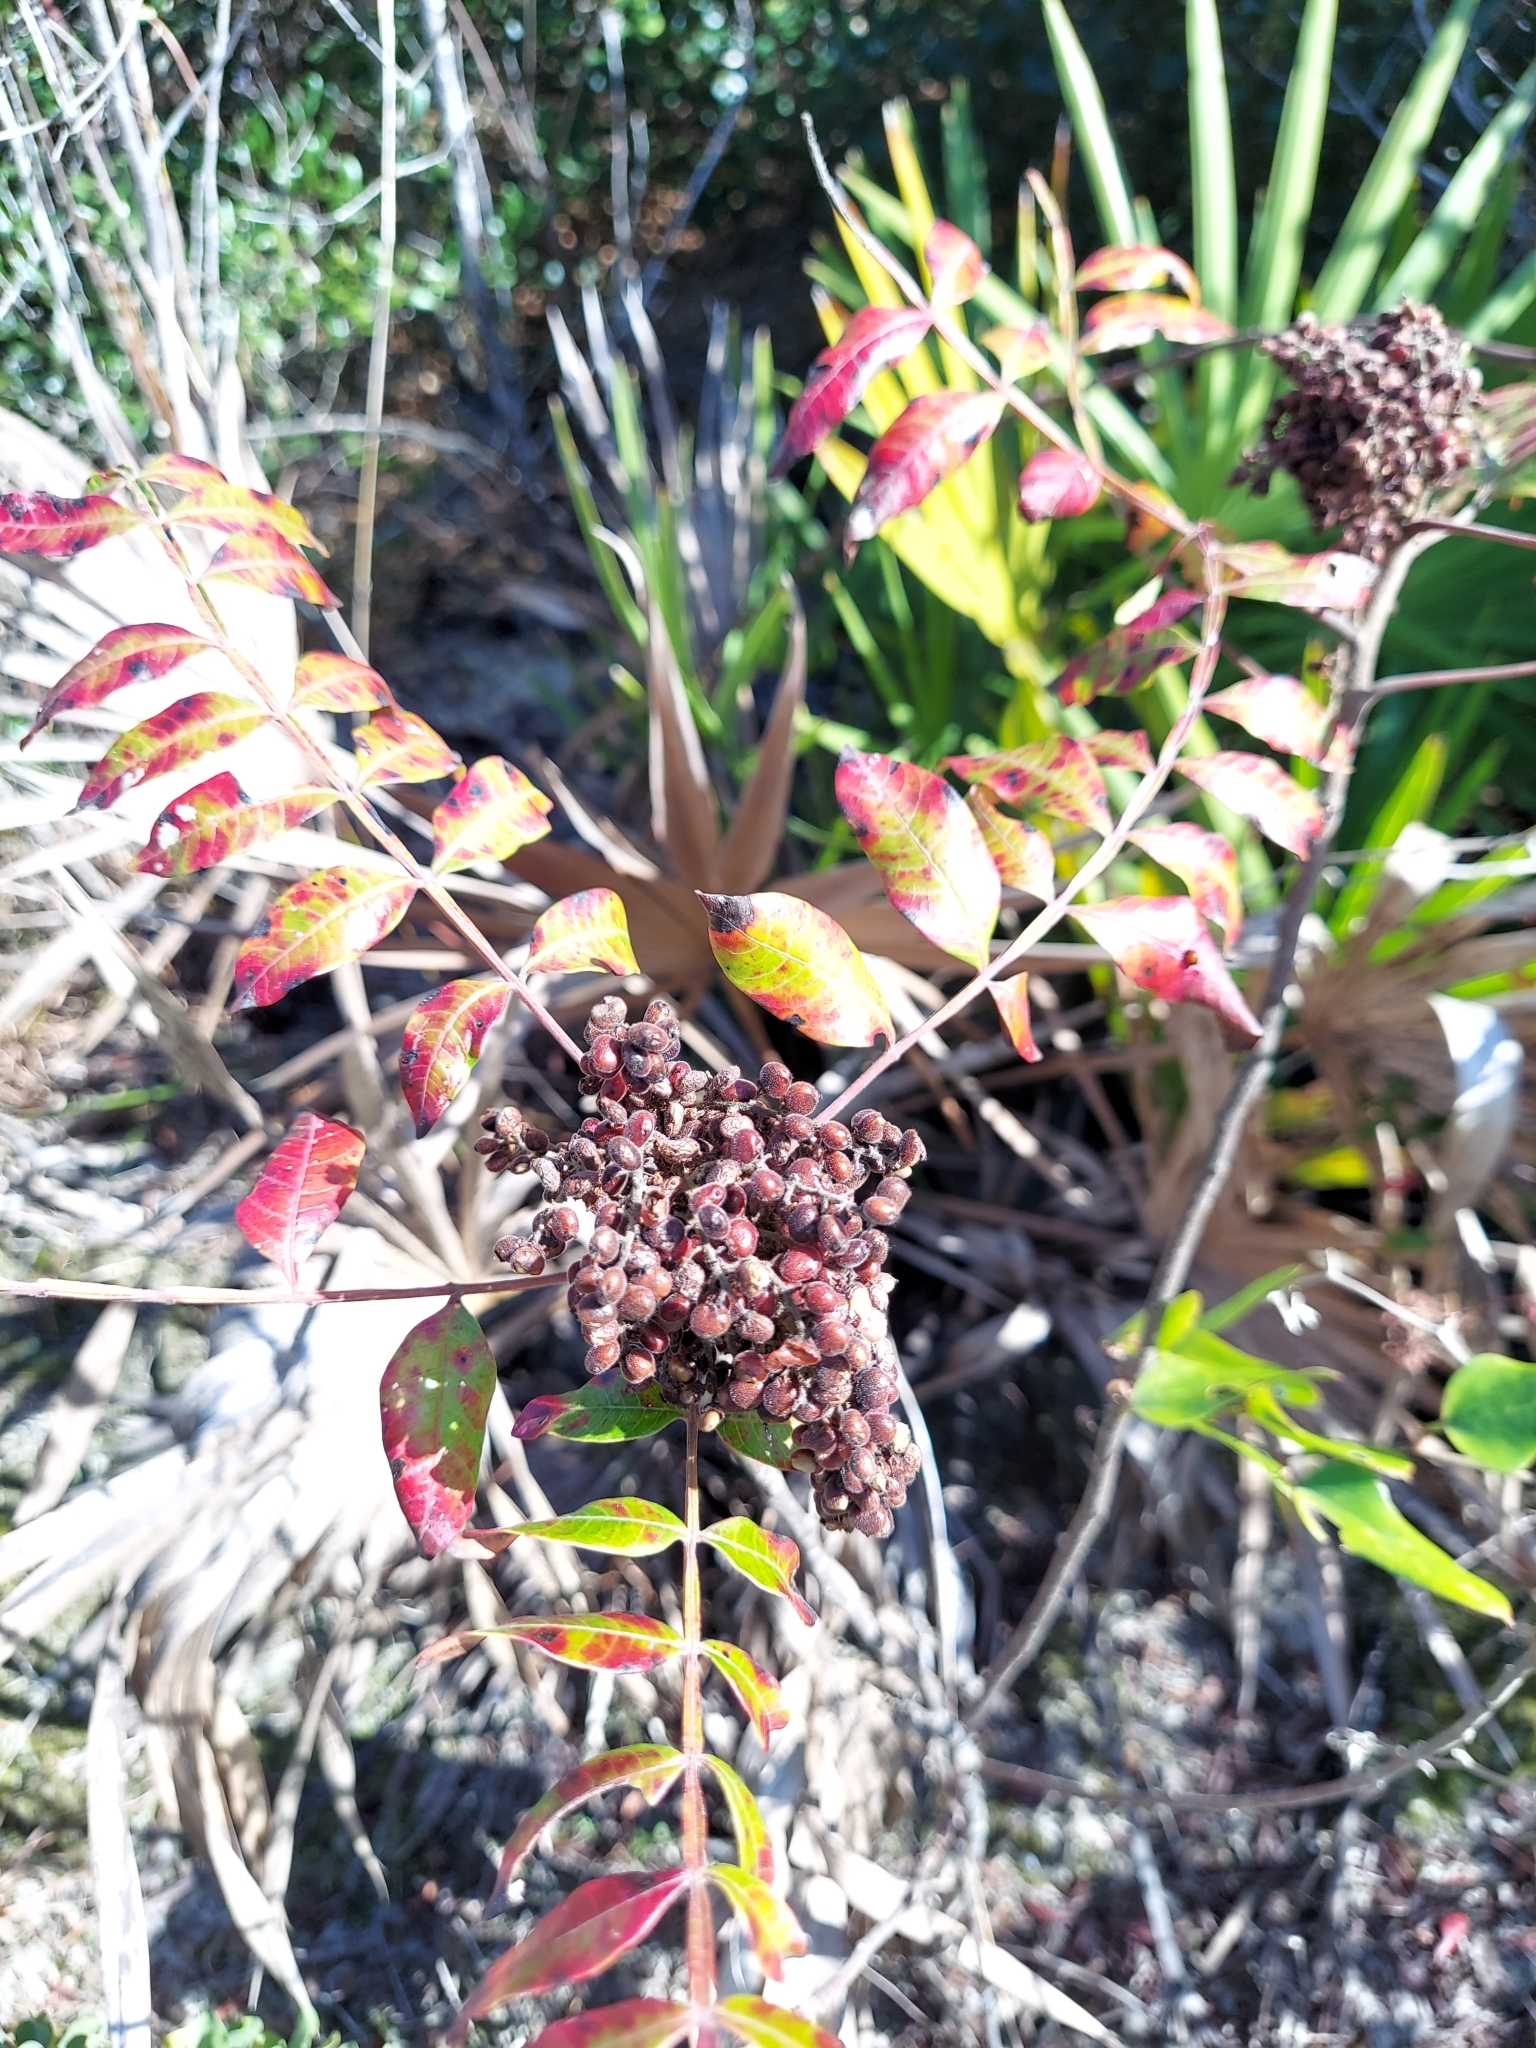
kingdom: Plantae
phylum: Tracheophyta
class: Magnoliopsida
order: Sapindales
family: Anacardiaceae
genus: Rhus
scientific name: Rhus copallina
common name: Shining sumac
